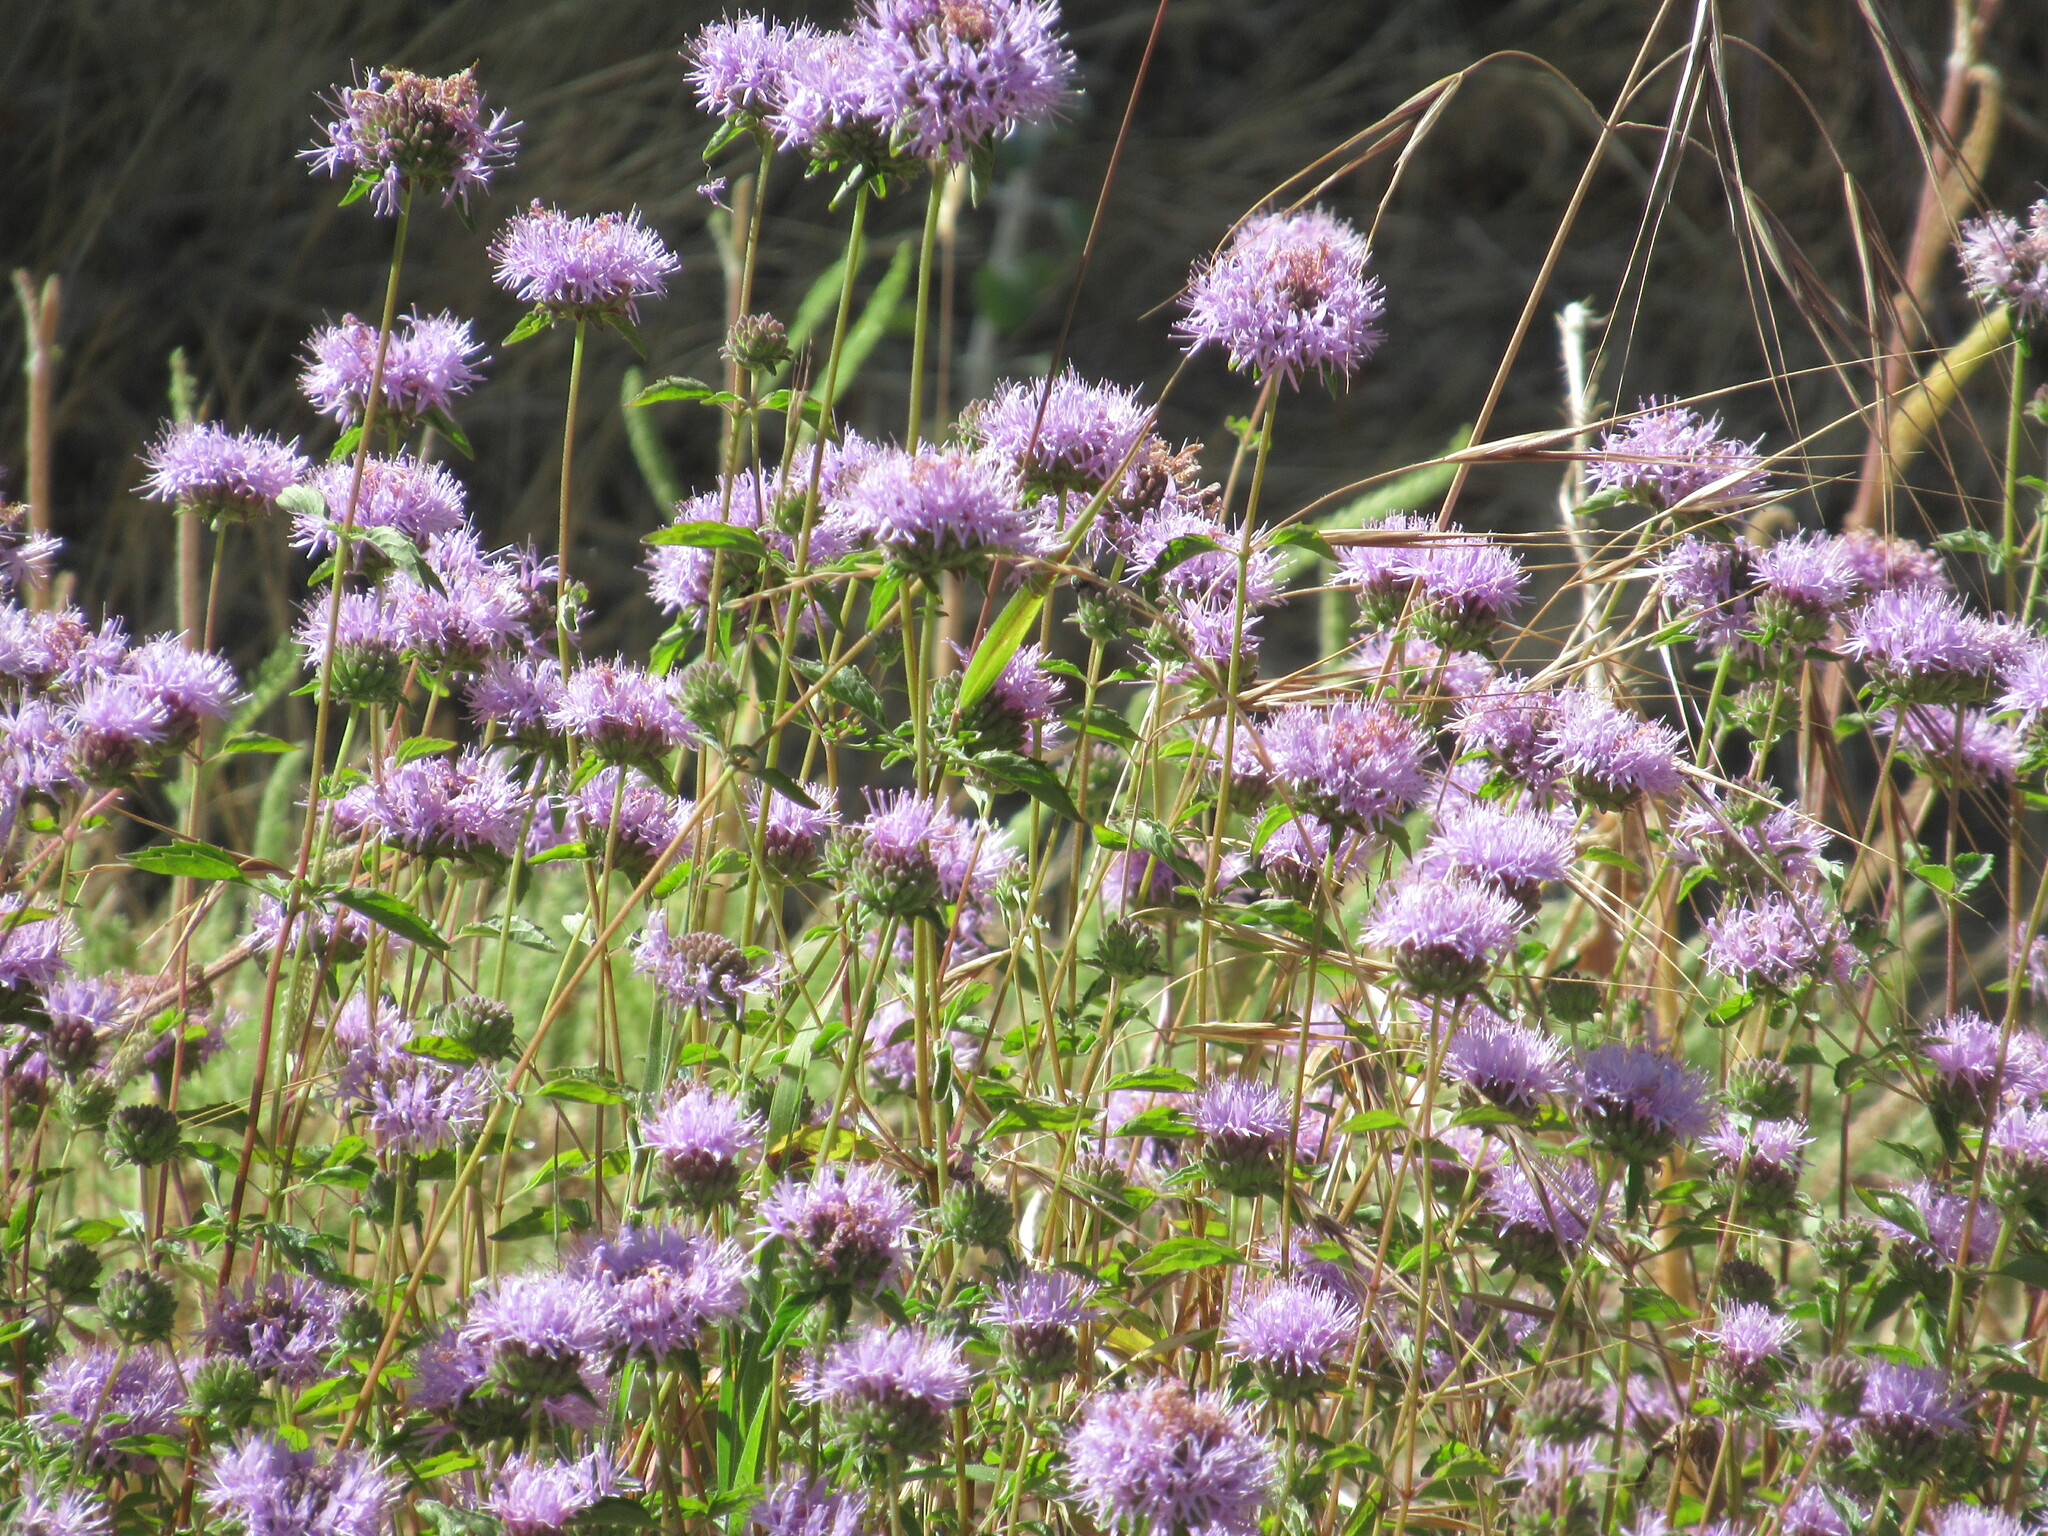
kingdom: Plantae
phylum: Tracheophyta
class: Magnoliopsida
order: Lamiales
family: Lamiaceae
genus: Monardella
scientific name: Monardella odoratissima
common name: Pacific monardella
